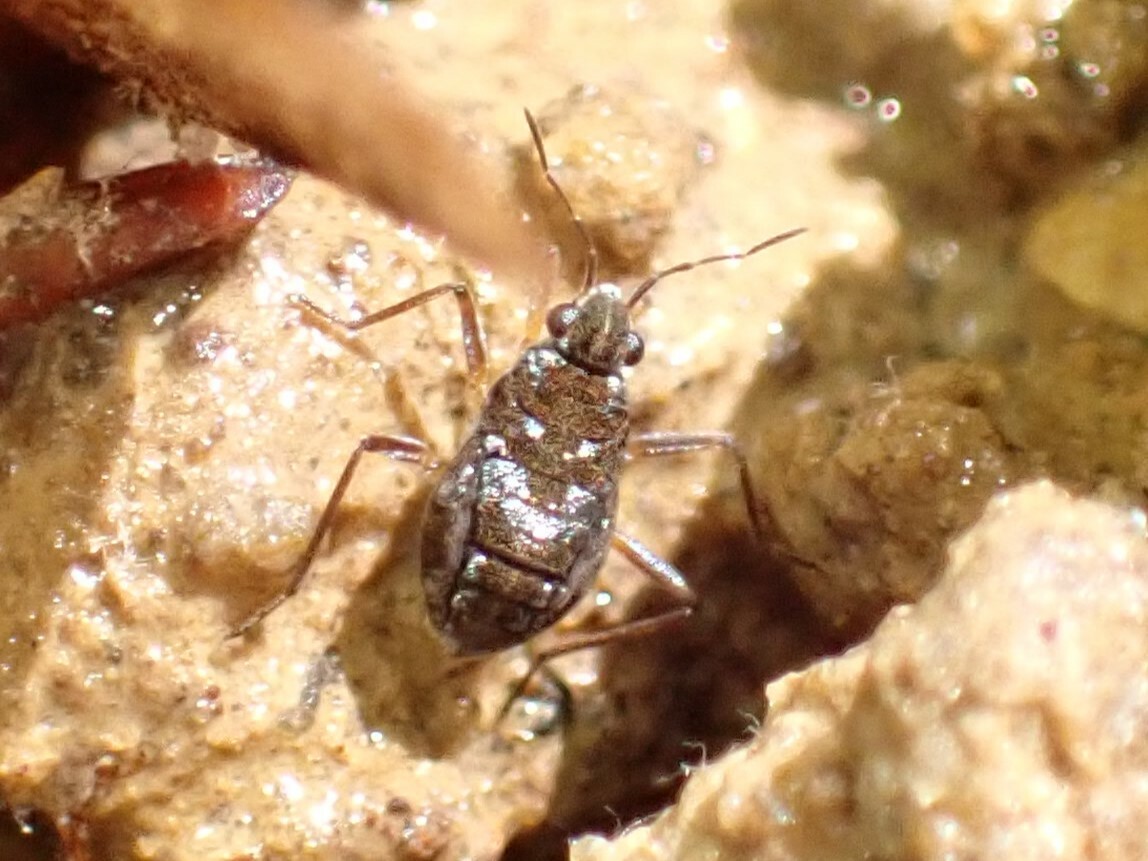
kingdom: Animalia
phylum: Arthropoda
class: Insecta
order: Hemiptera
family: Veliidae
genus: Microvelia
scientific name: Microvelia americana
